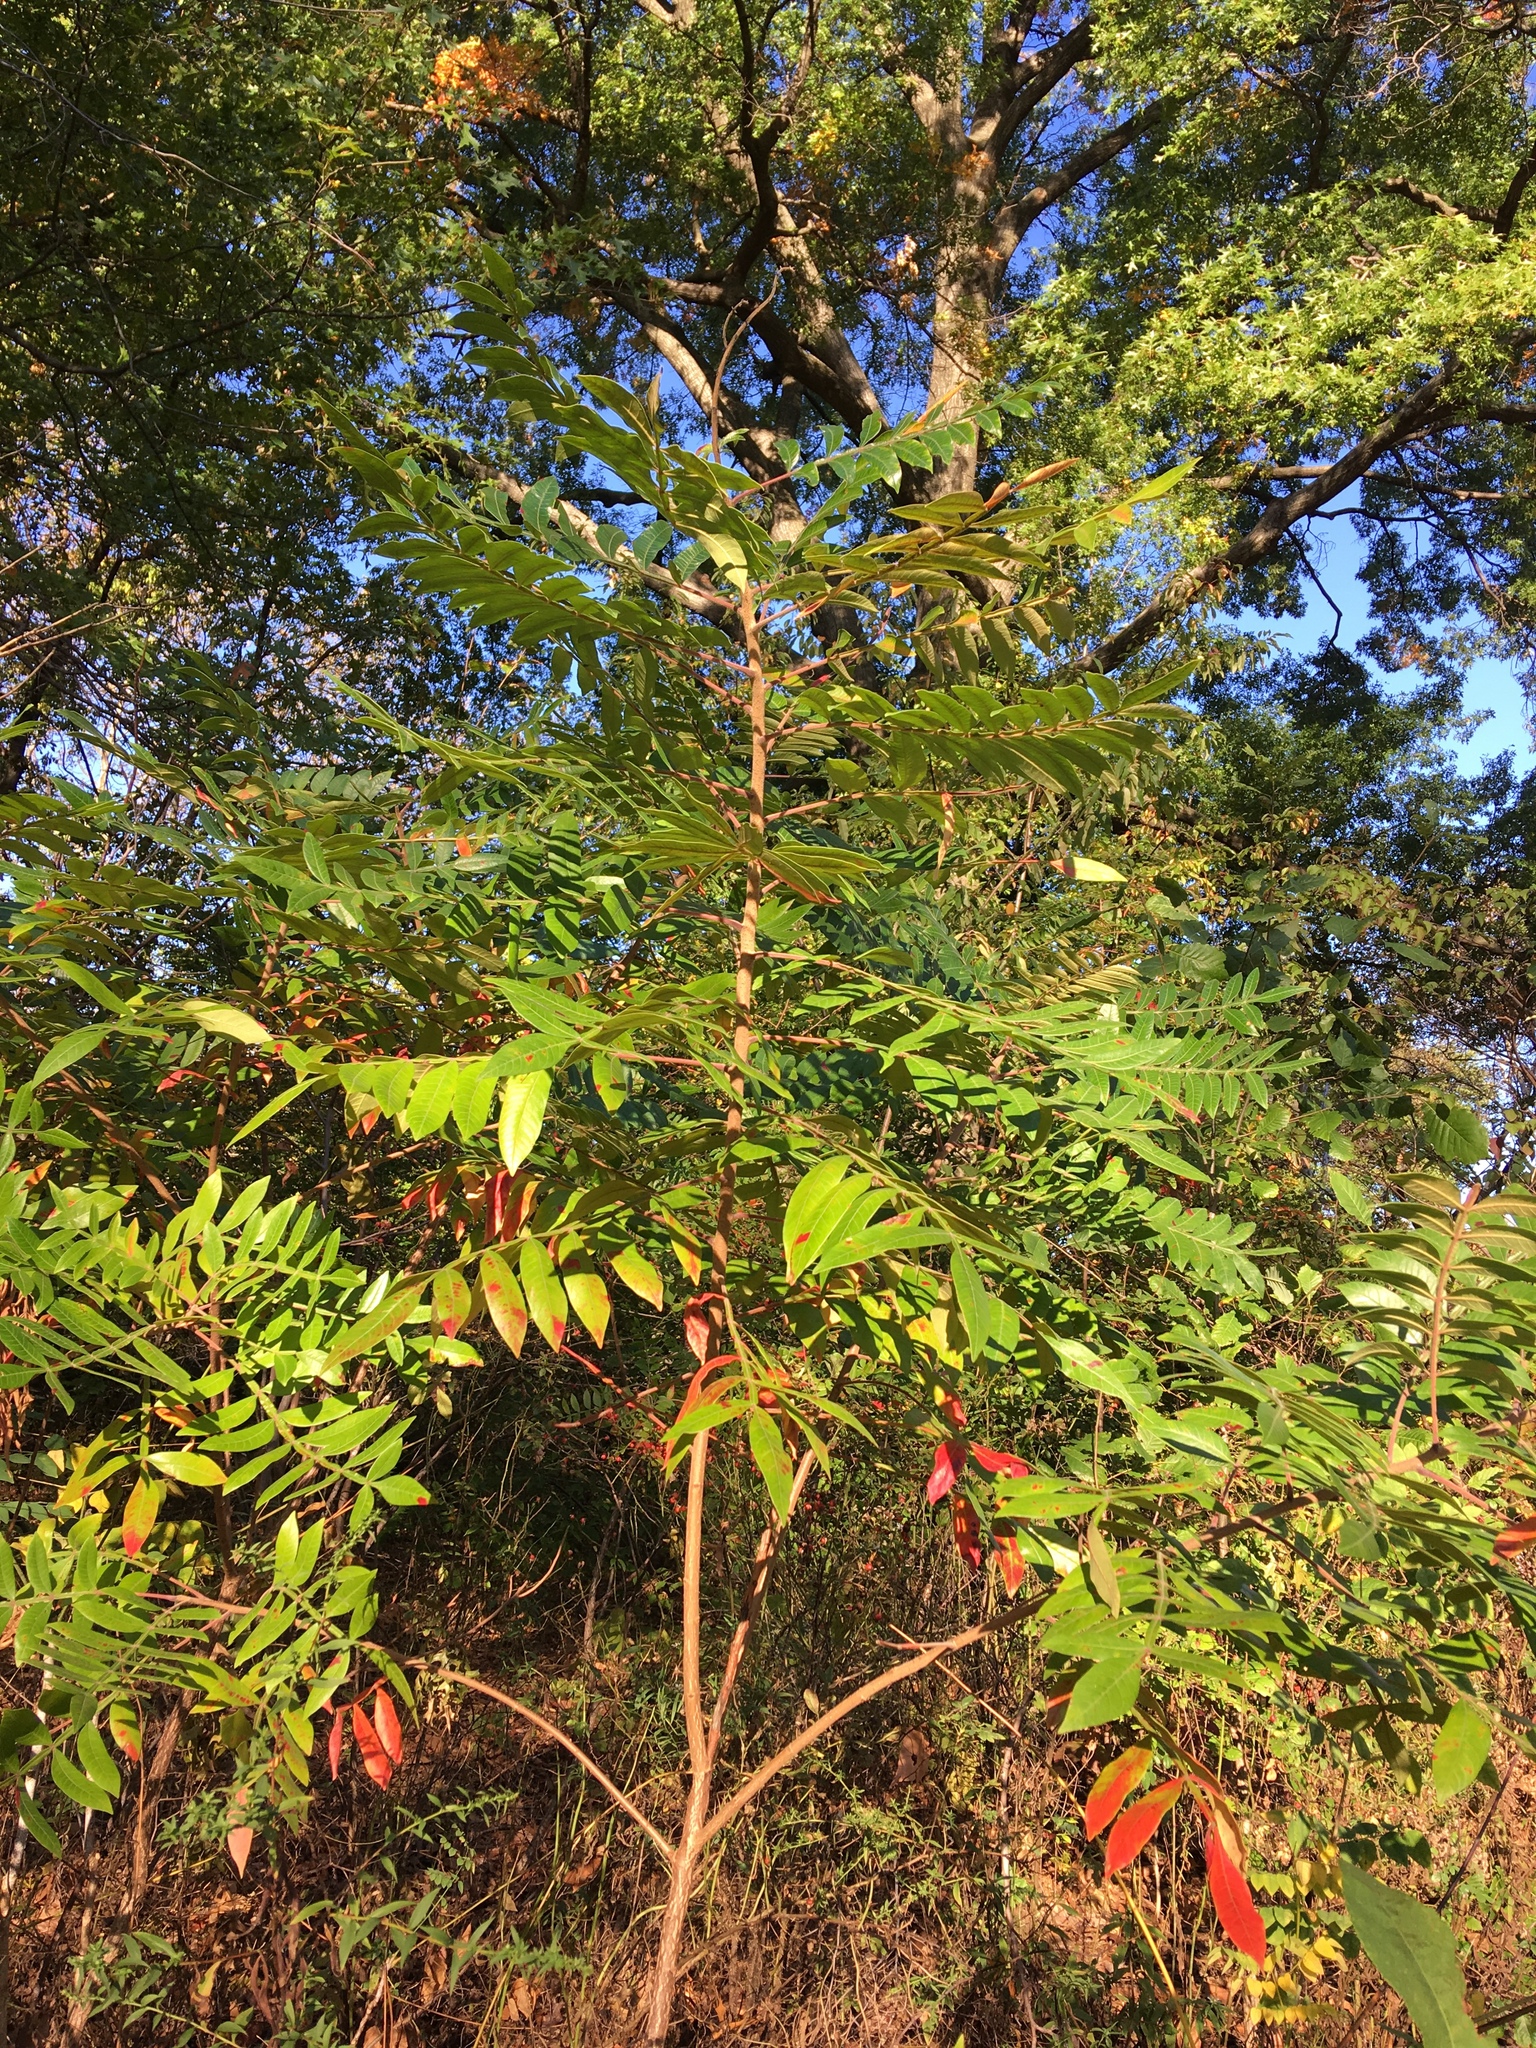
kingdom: Plantae
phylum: Tracheophyta
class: Magnoliopsida
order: Sapindales
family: Anacardiaceae
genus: Rhus
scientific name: Rhus copallina
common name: Shining sumac
